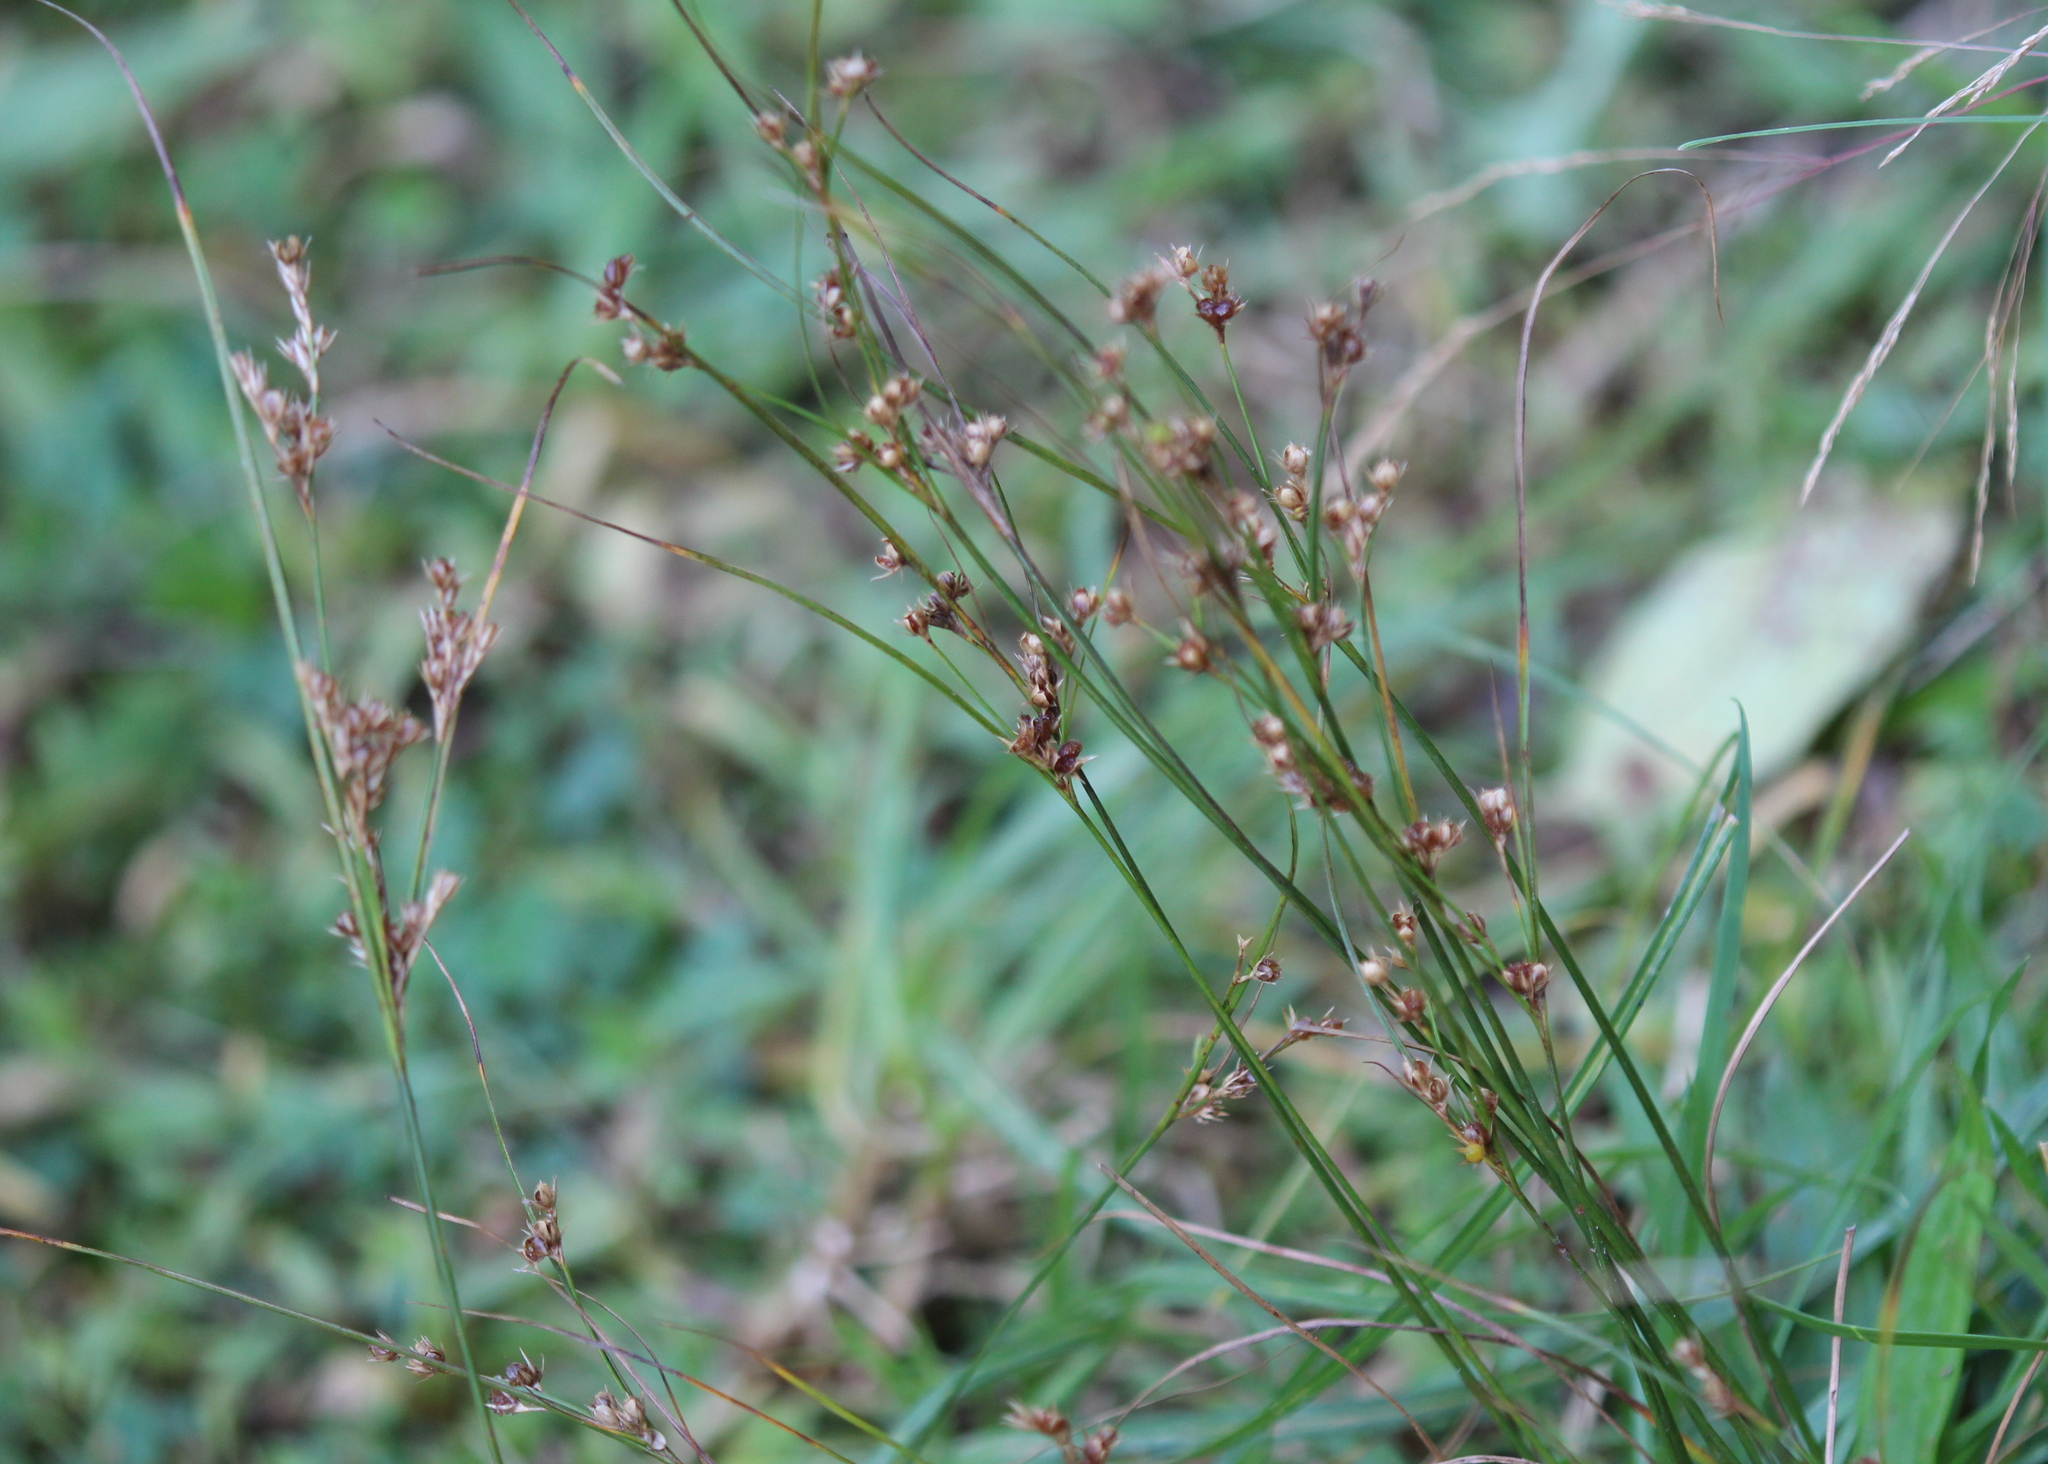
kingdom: Plantae
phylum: Tracheophyta
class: Liliopsida
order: Poales
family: Juncaceae
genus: Juncus
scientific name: Juncus tenuis
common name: Slender rush
